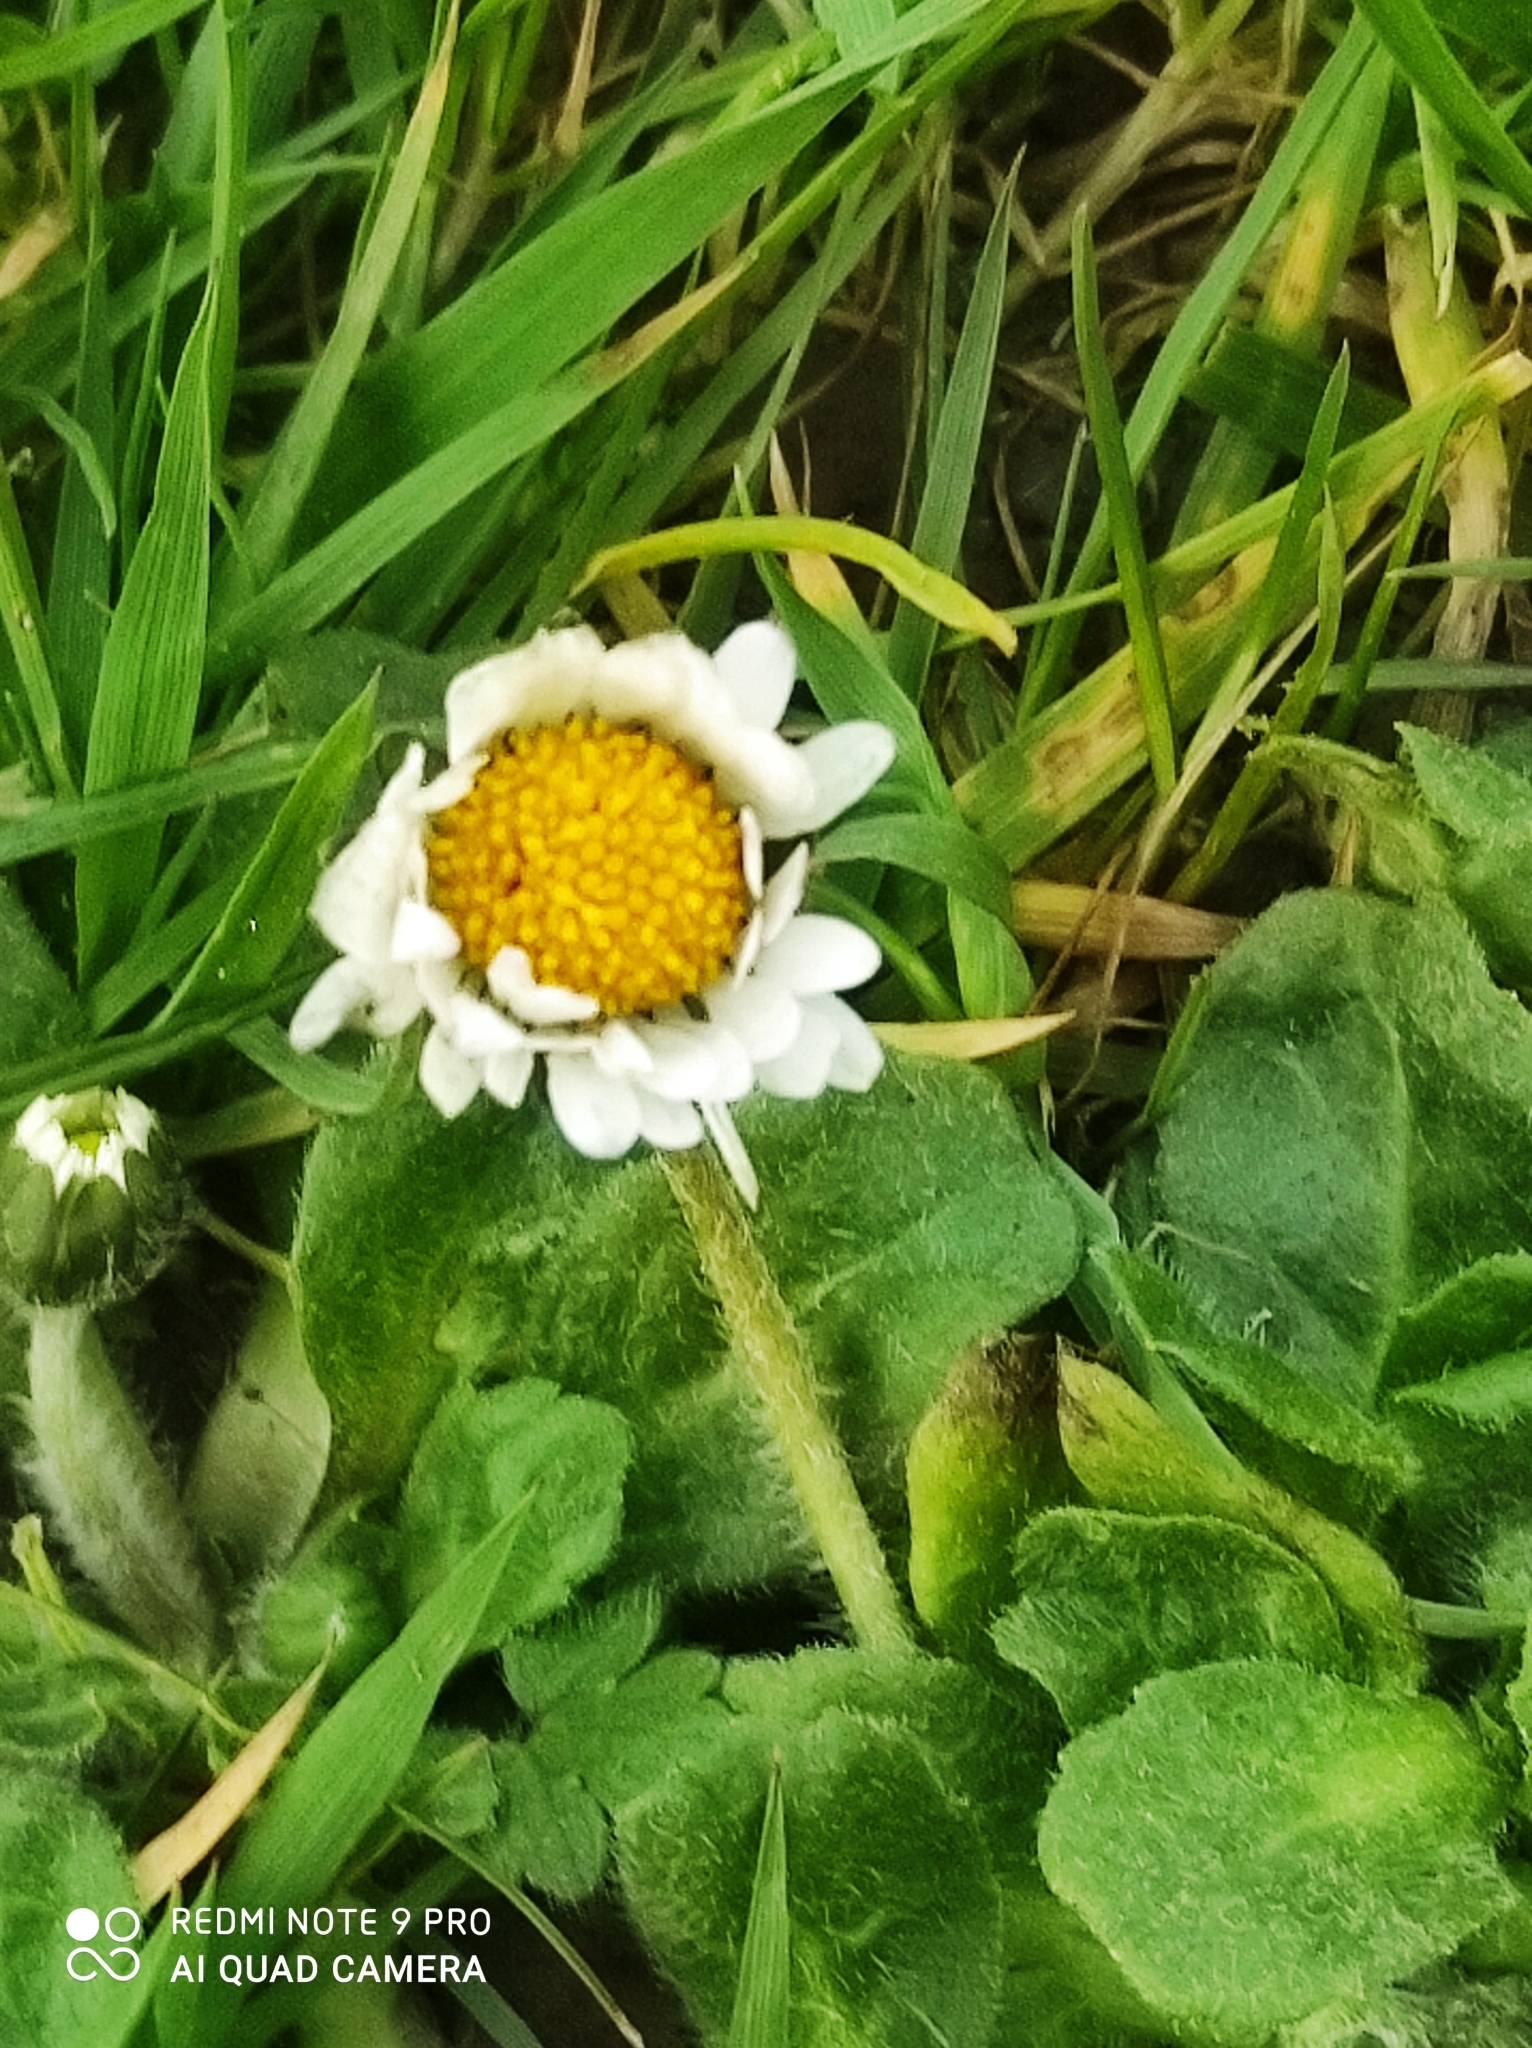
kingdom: Plantae
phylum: Tracheophyta
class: Magnoliopsida
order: Asterales
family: Asteraceae
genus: Bellis
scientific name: Bellis perennis
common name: Lawndaisy
